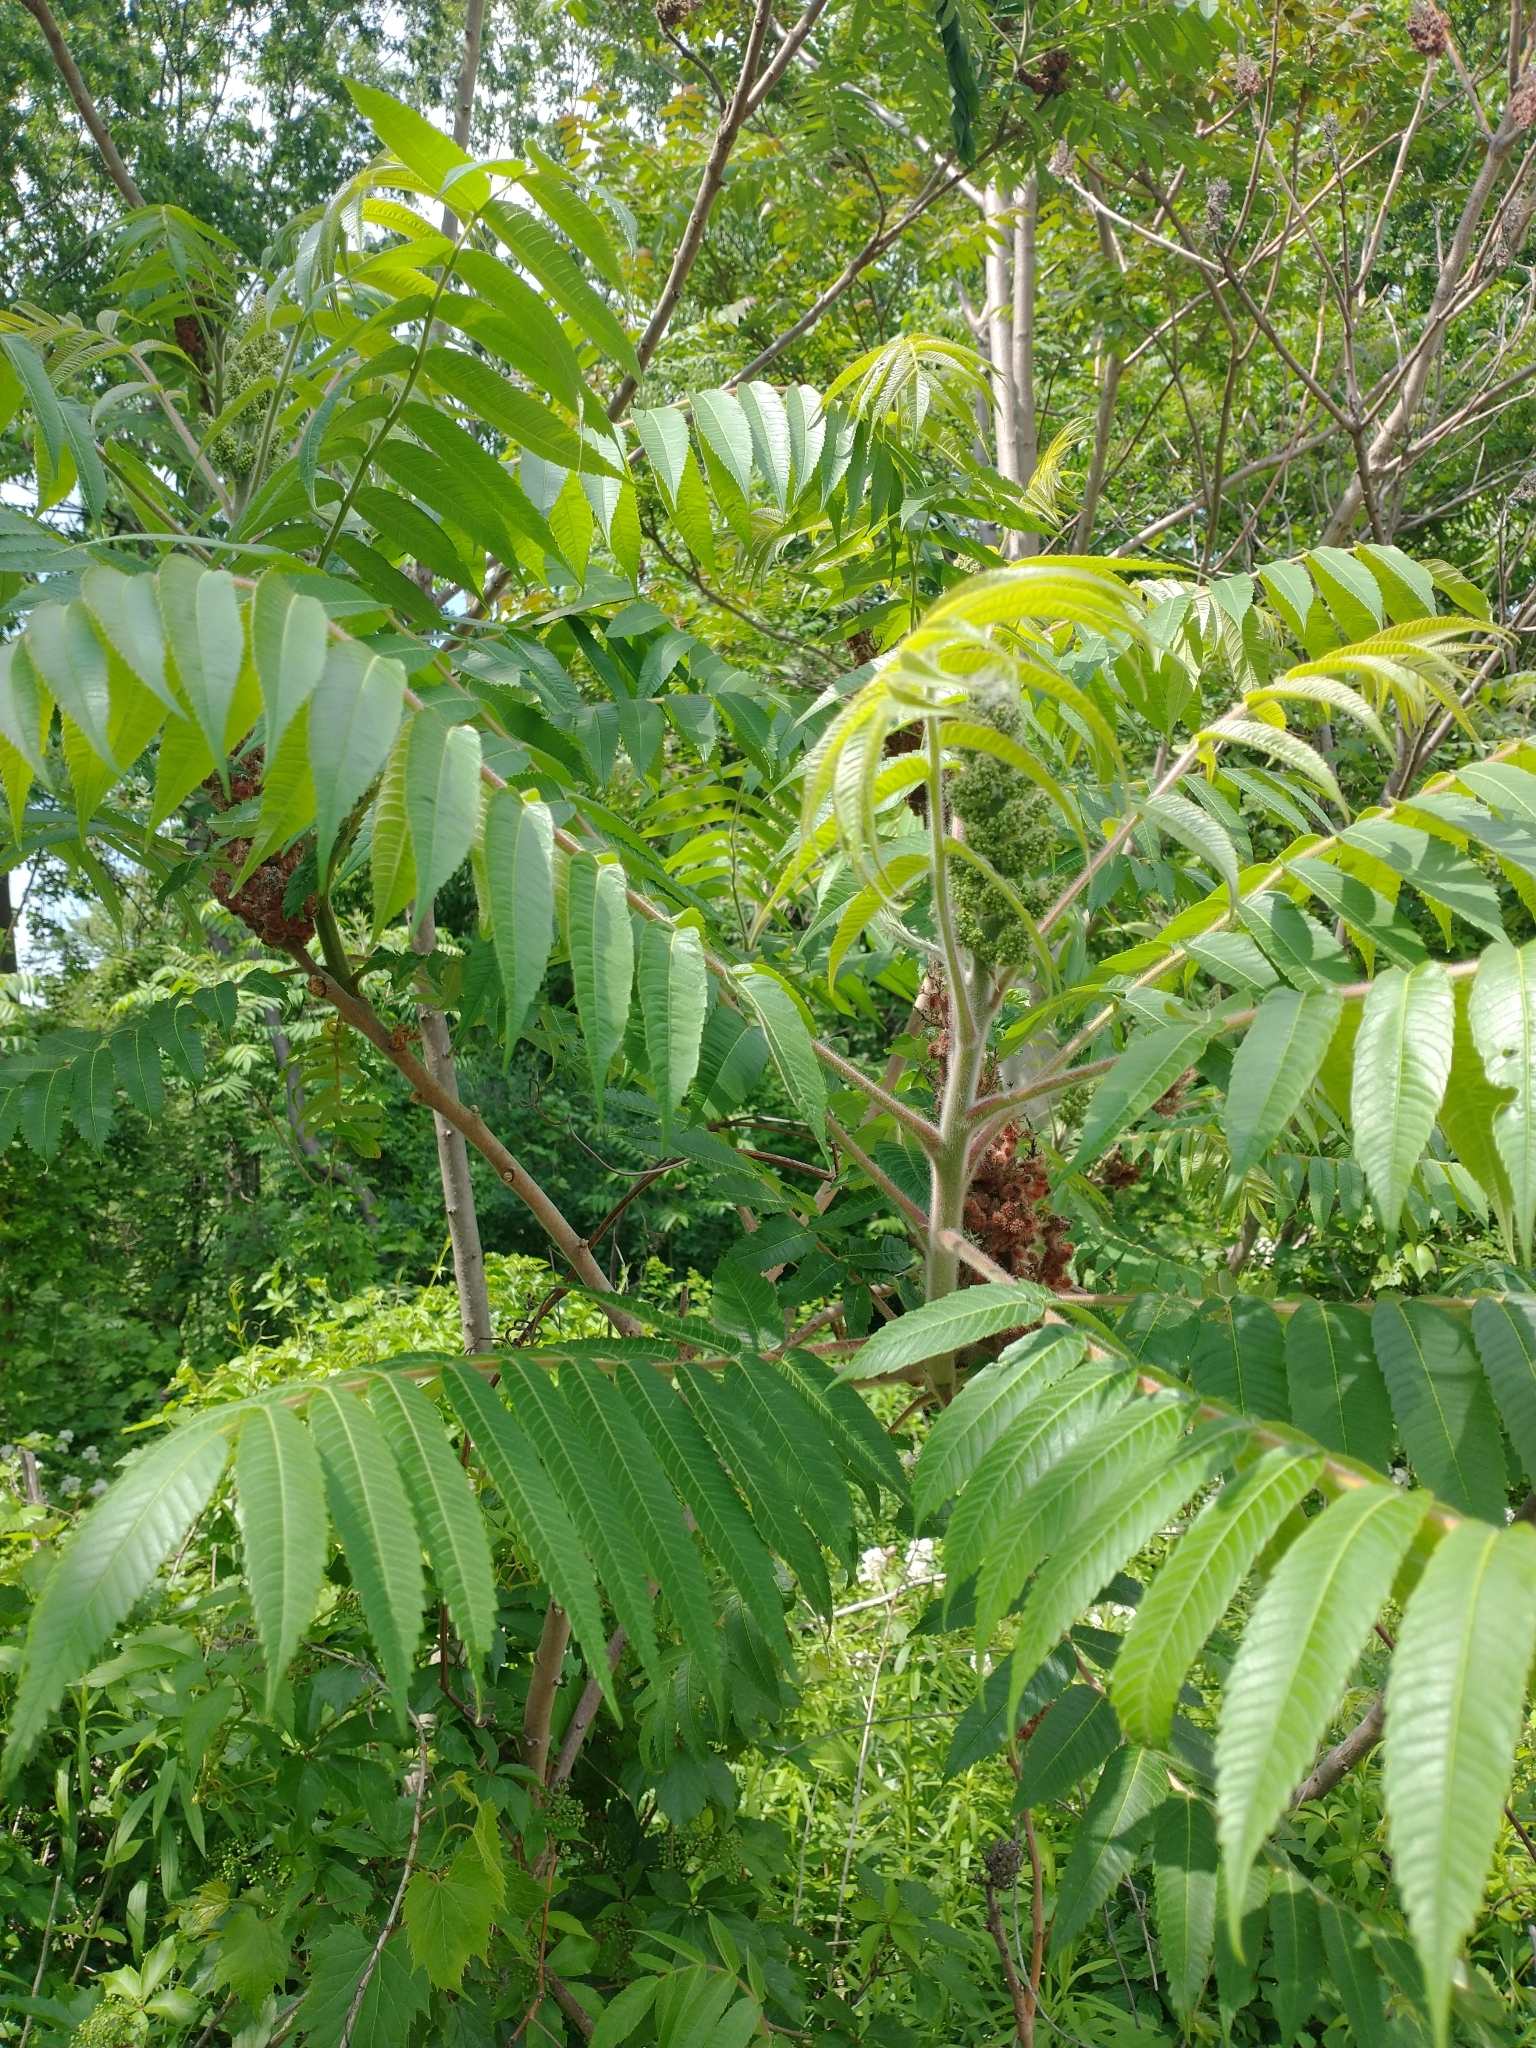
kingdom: Plantae
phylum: Tracheophyta
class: Magnoliopsida
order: Sapindales
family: Anacardiaceae
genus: Rhus
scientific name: Rhus typhina
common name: Staghorn sumac
